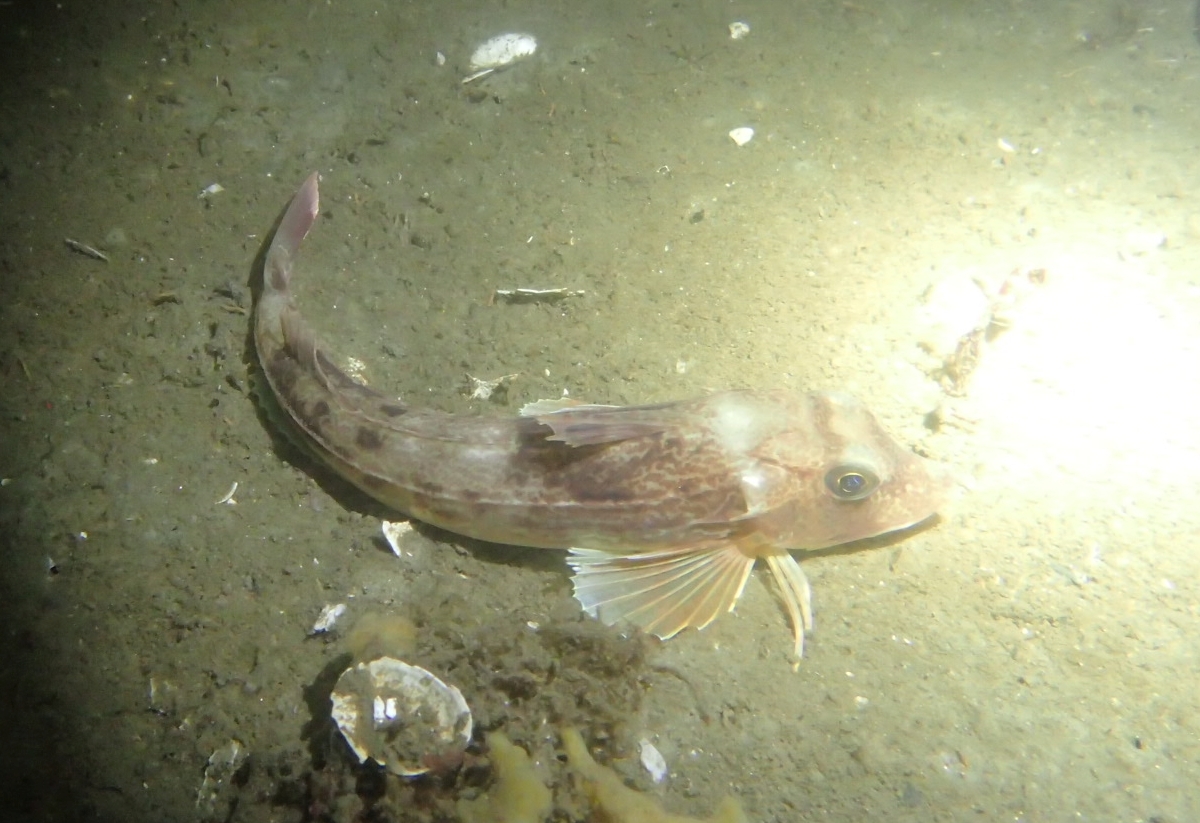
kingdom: Animalia
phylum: Chordata
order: Scorpaeniformes
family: Triglidae
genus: Eutrigla
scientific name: Eutrigla gurnardus
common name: Grey gurnard
